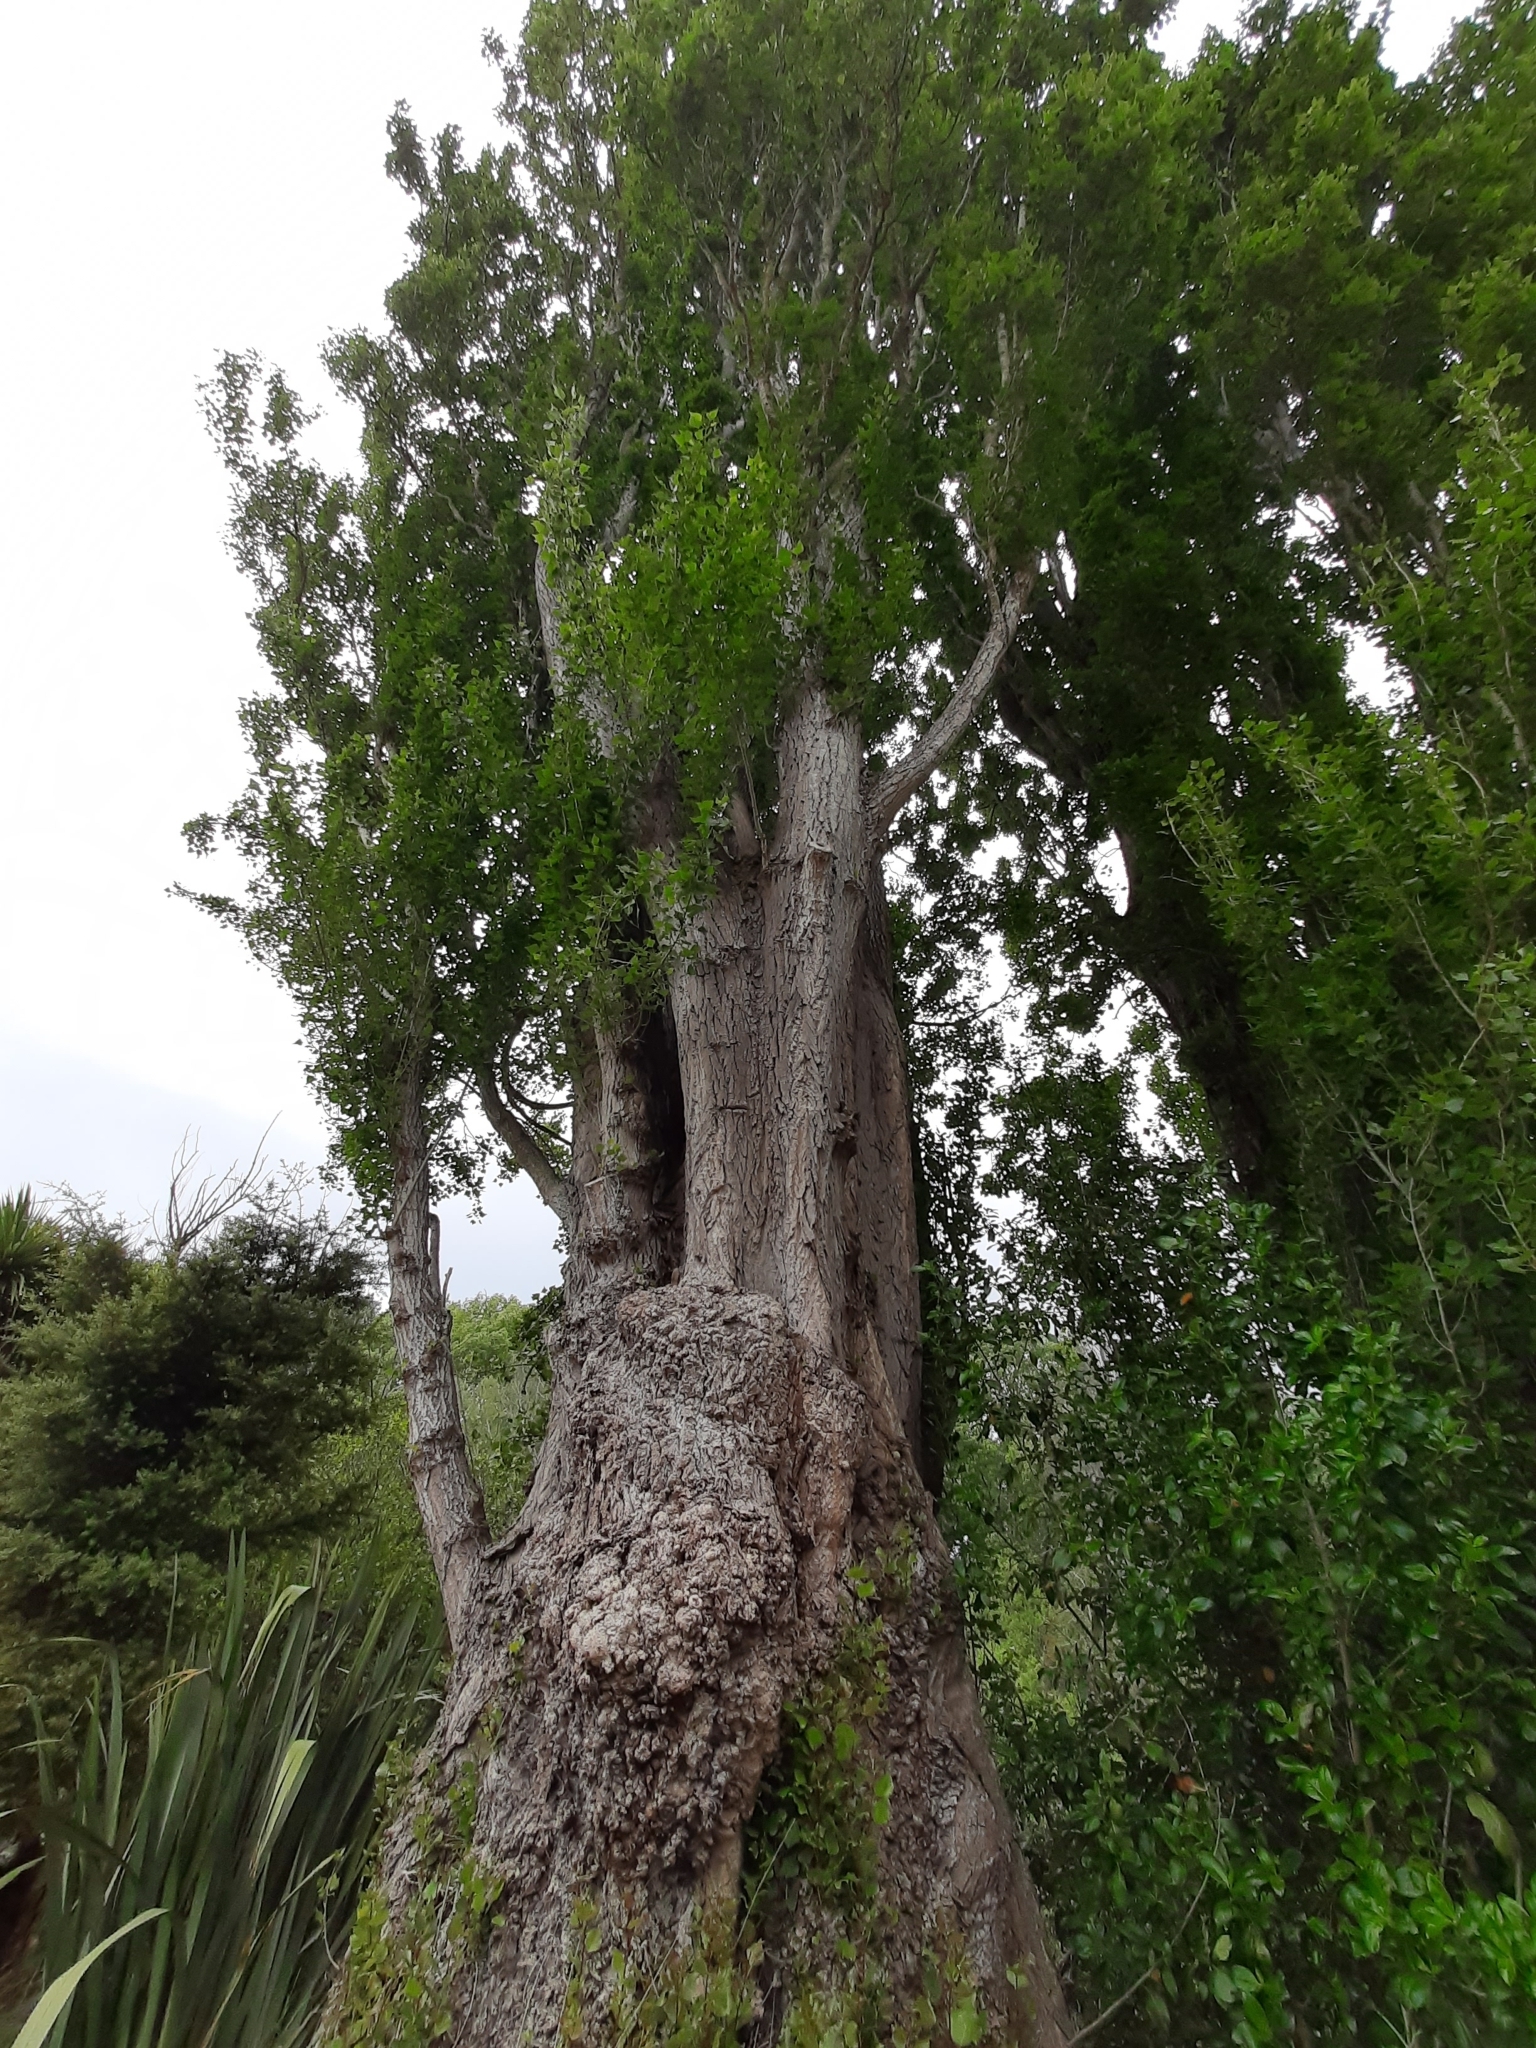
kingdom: Plantae
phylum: Tracheophyta
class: Magnoliopsida
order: Malpighiales
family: Salicaceae
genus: Populus
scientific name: Populus nigra
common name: Black poplar
